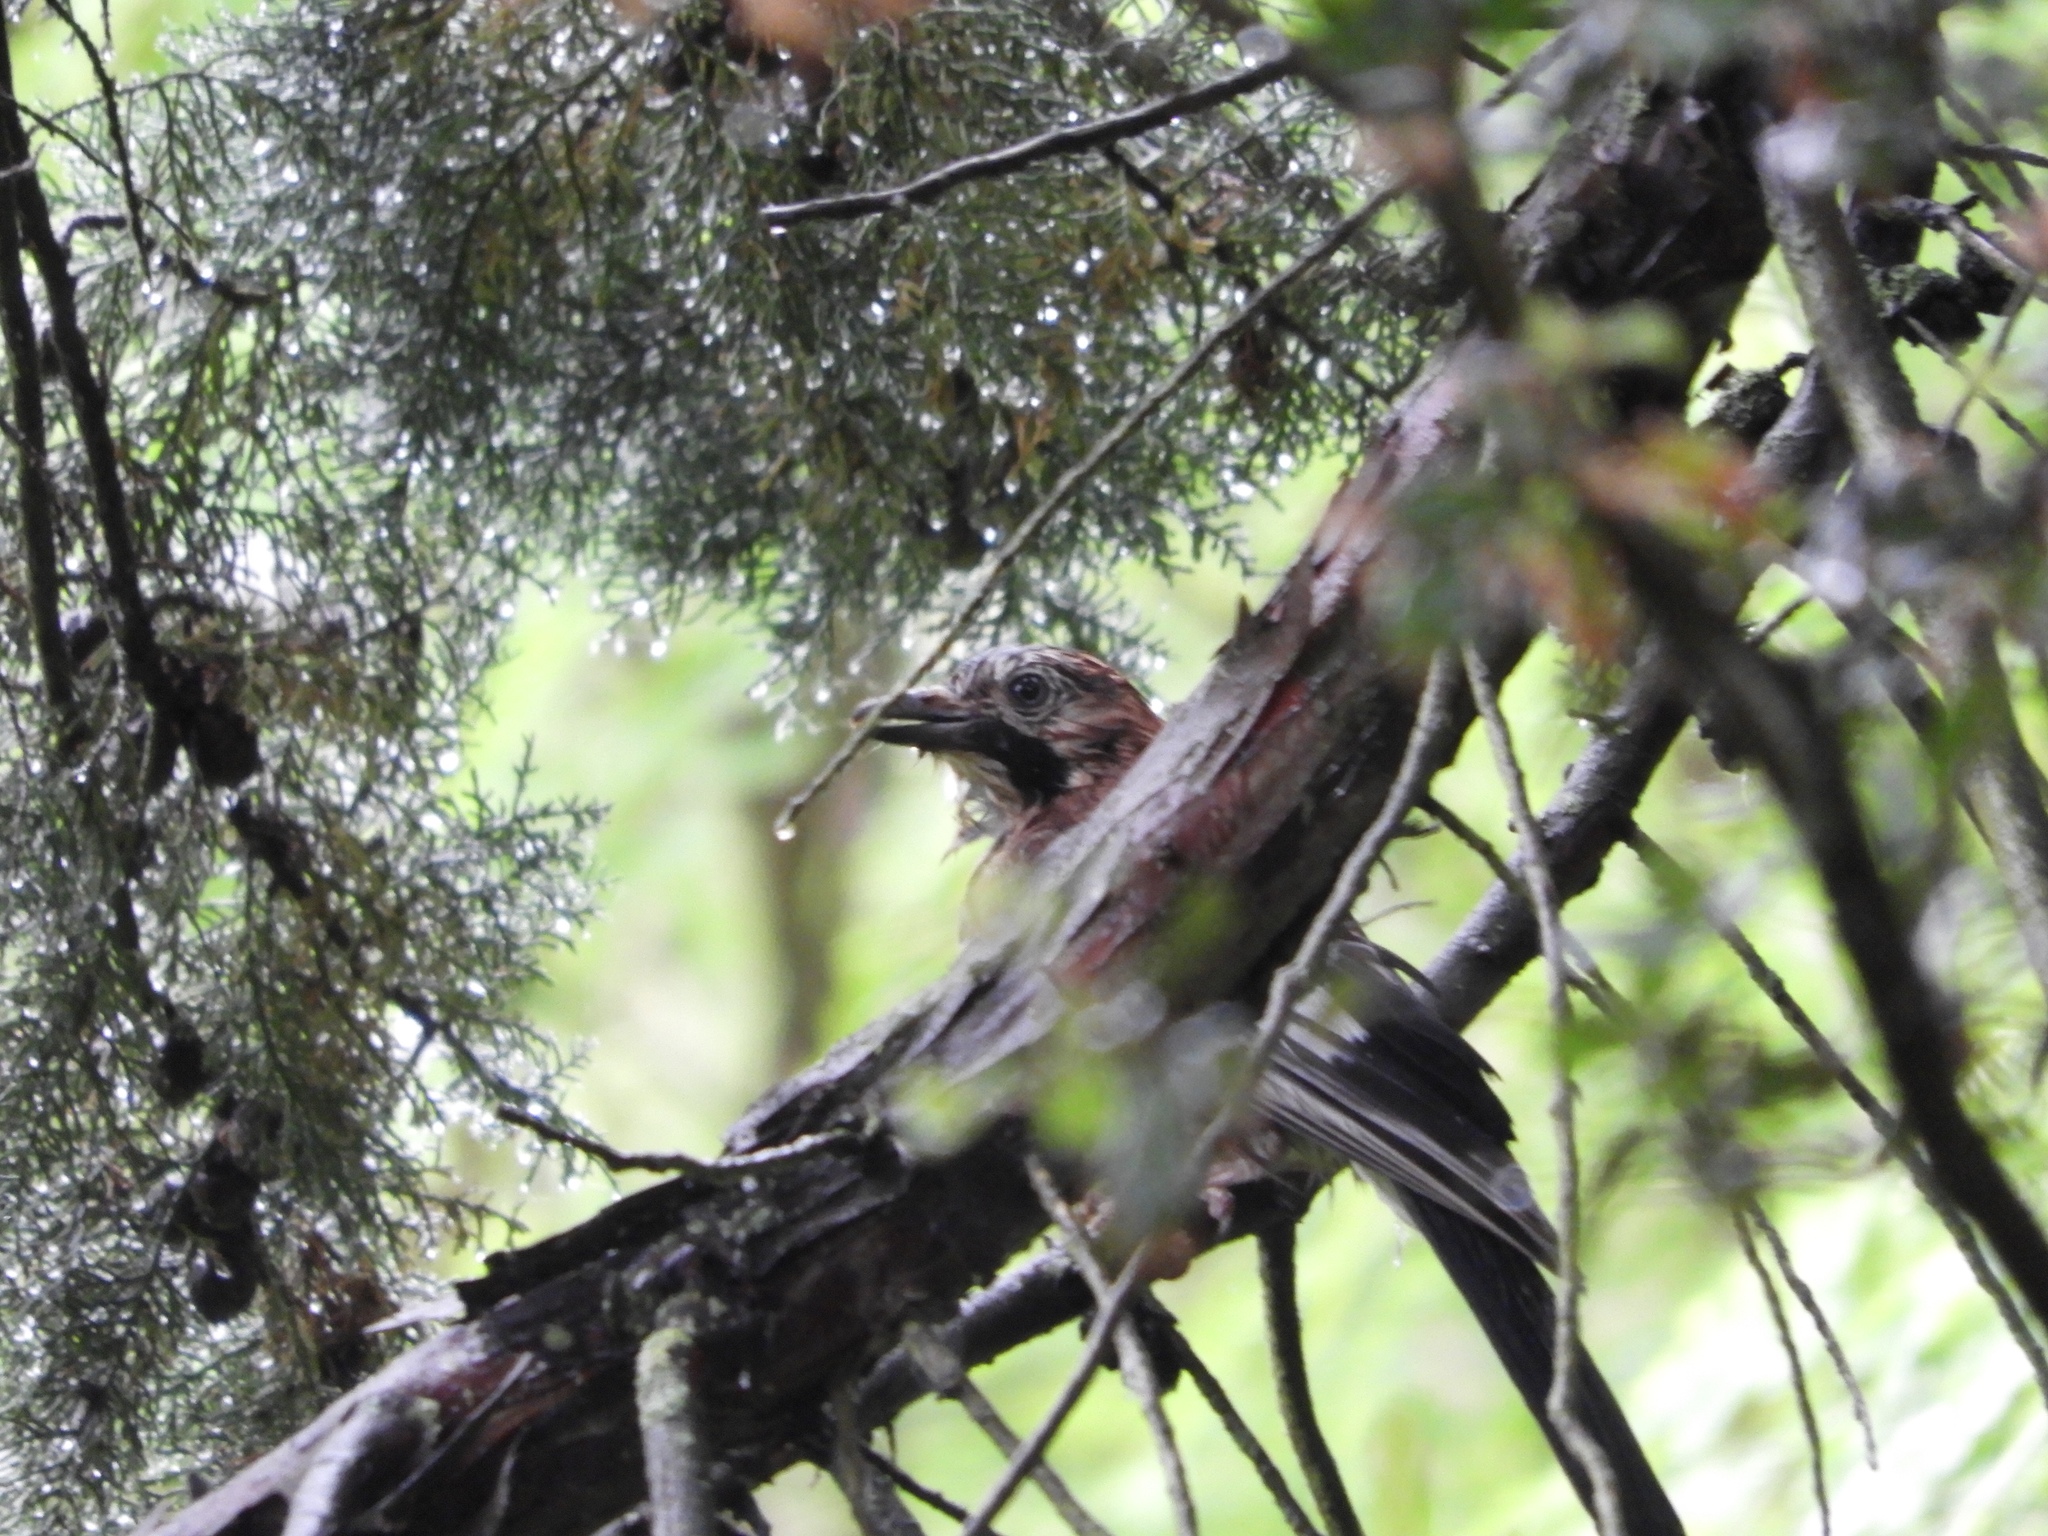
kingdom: Animalia
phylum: Chordata
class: Aves
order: Passeriformes
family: Corvidae
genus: Garrulus
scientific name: Garrulus glandarius
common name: Eurasian jay
